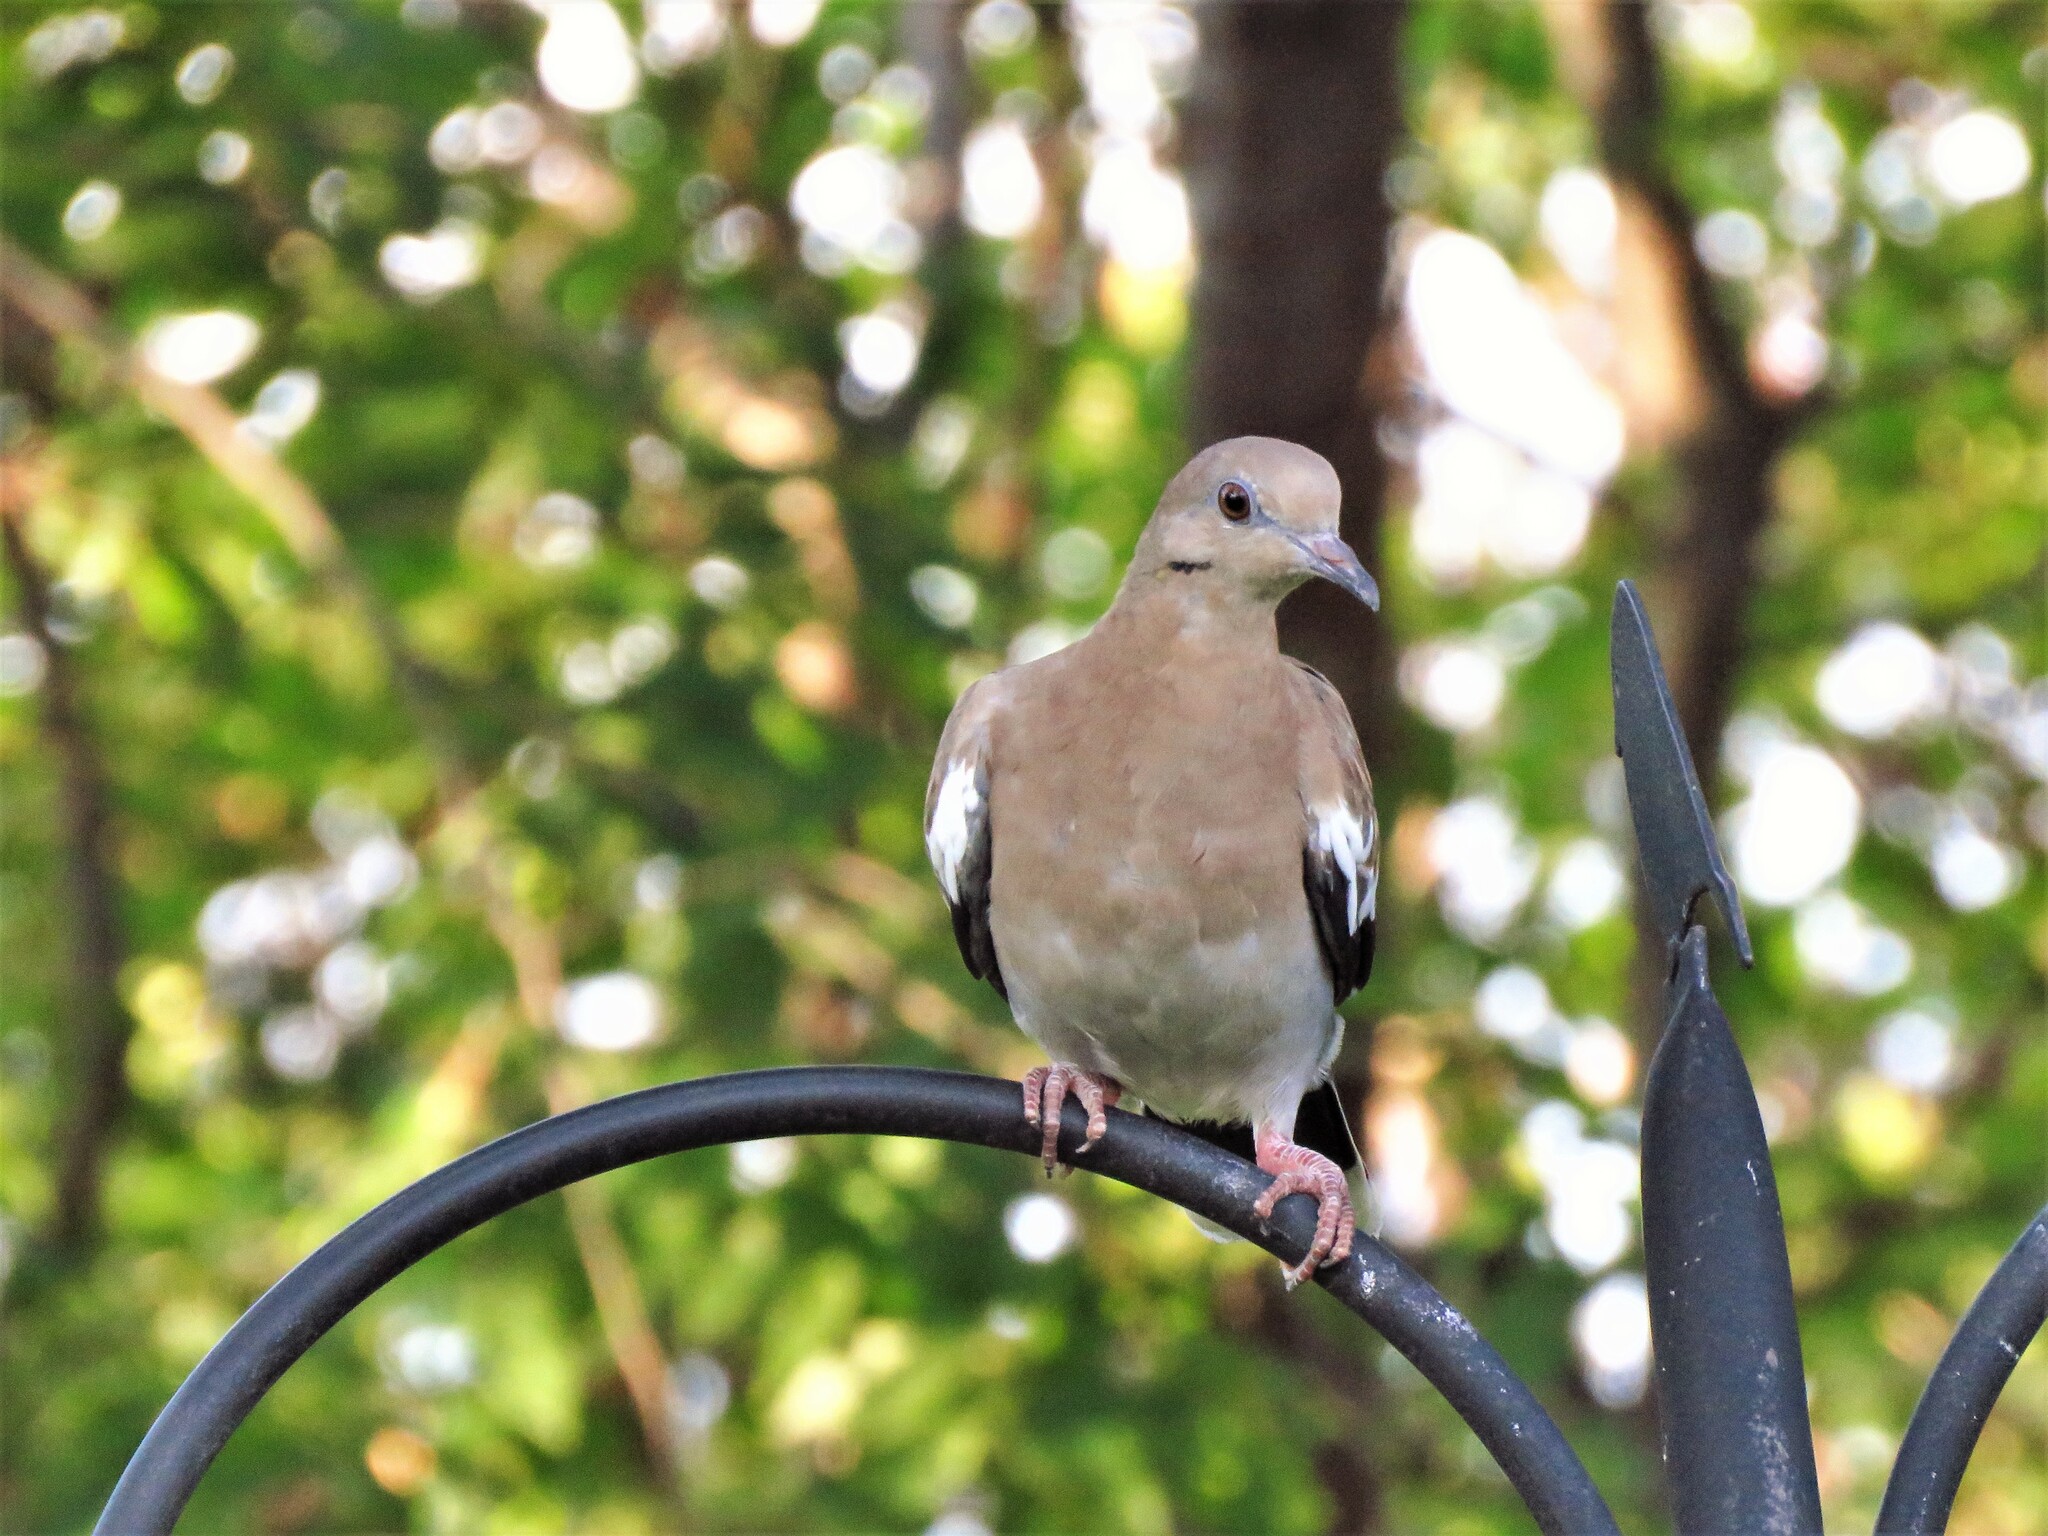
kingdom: Animalia
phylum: Chordata
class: Aves
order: Columbiformes
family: Columbidae
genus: Zenaida
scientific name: Zenaida asiatica
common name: White-winged dove
